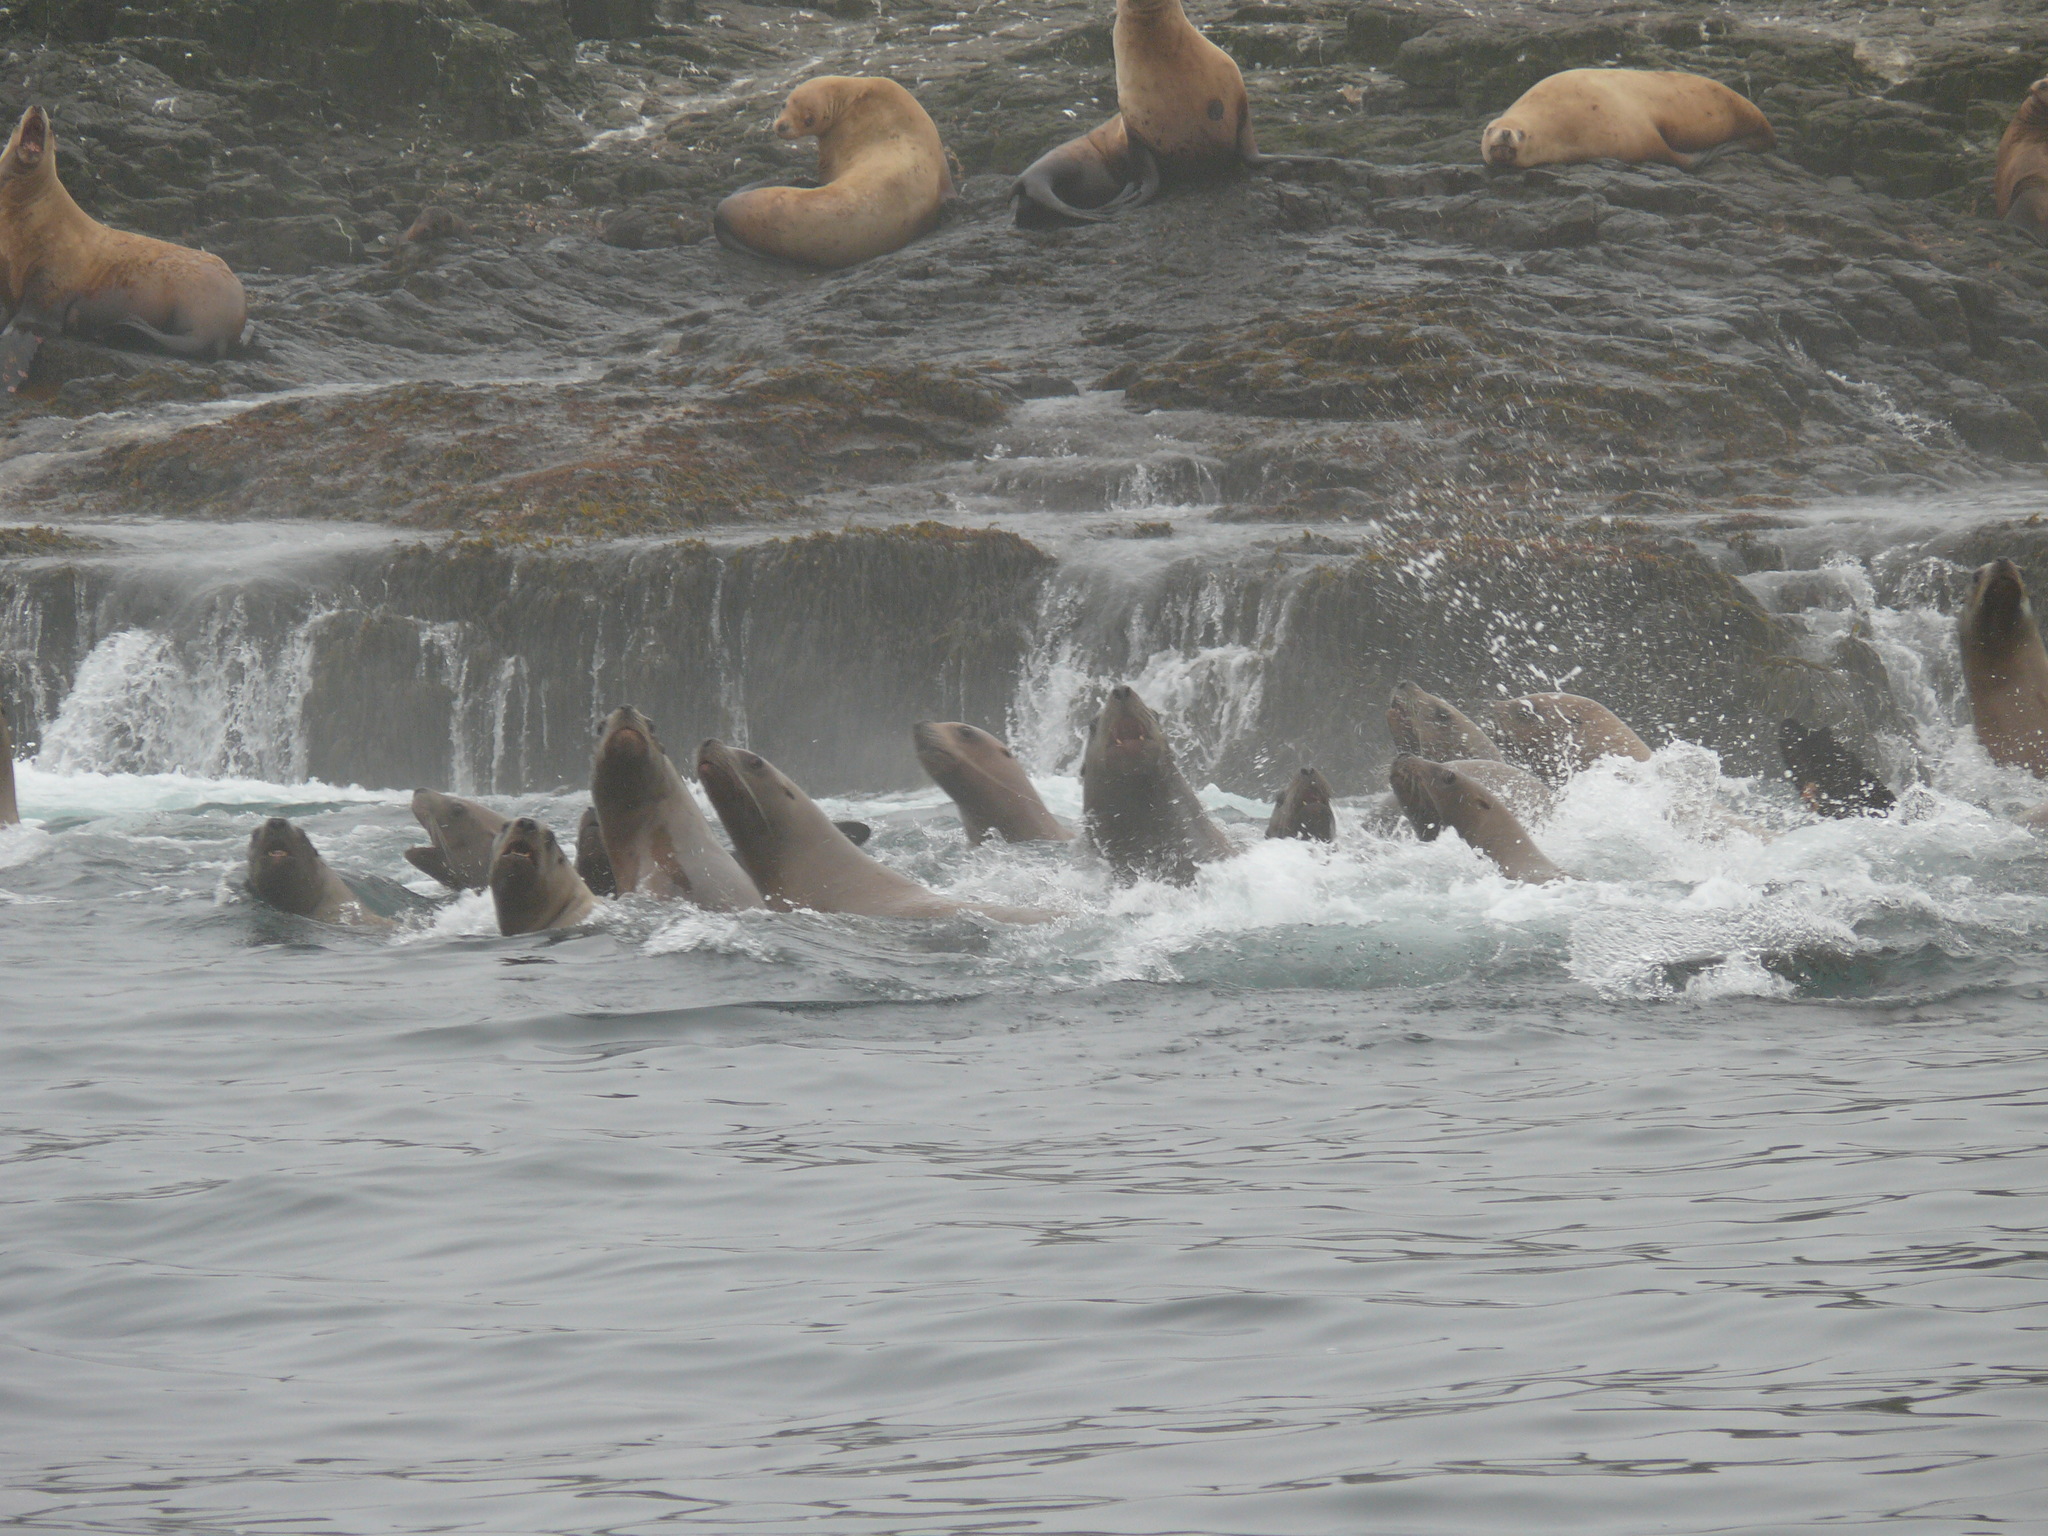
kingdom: Animalia
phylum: Chordata
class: Mammalia
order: Carnivora
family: Otariidae
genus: Eumetopias
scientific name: Eumetopias jubatus
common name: Steller sea lion
